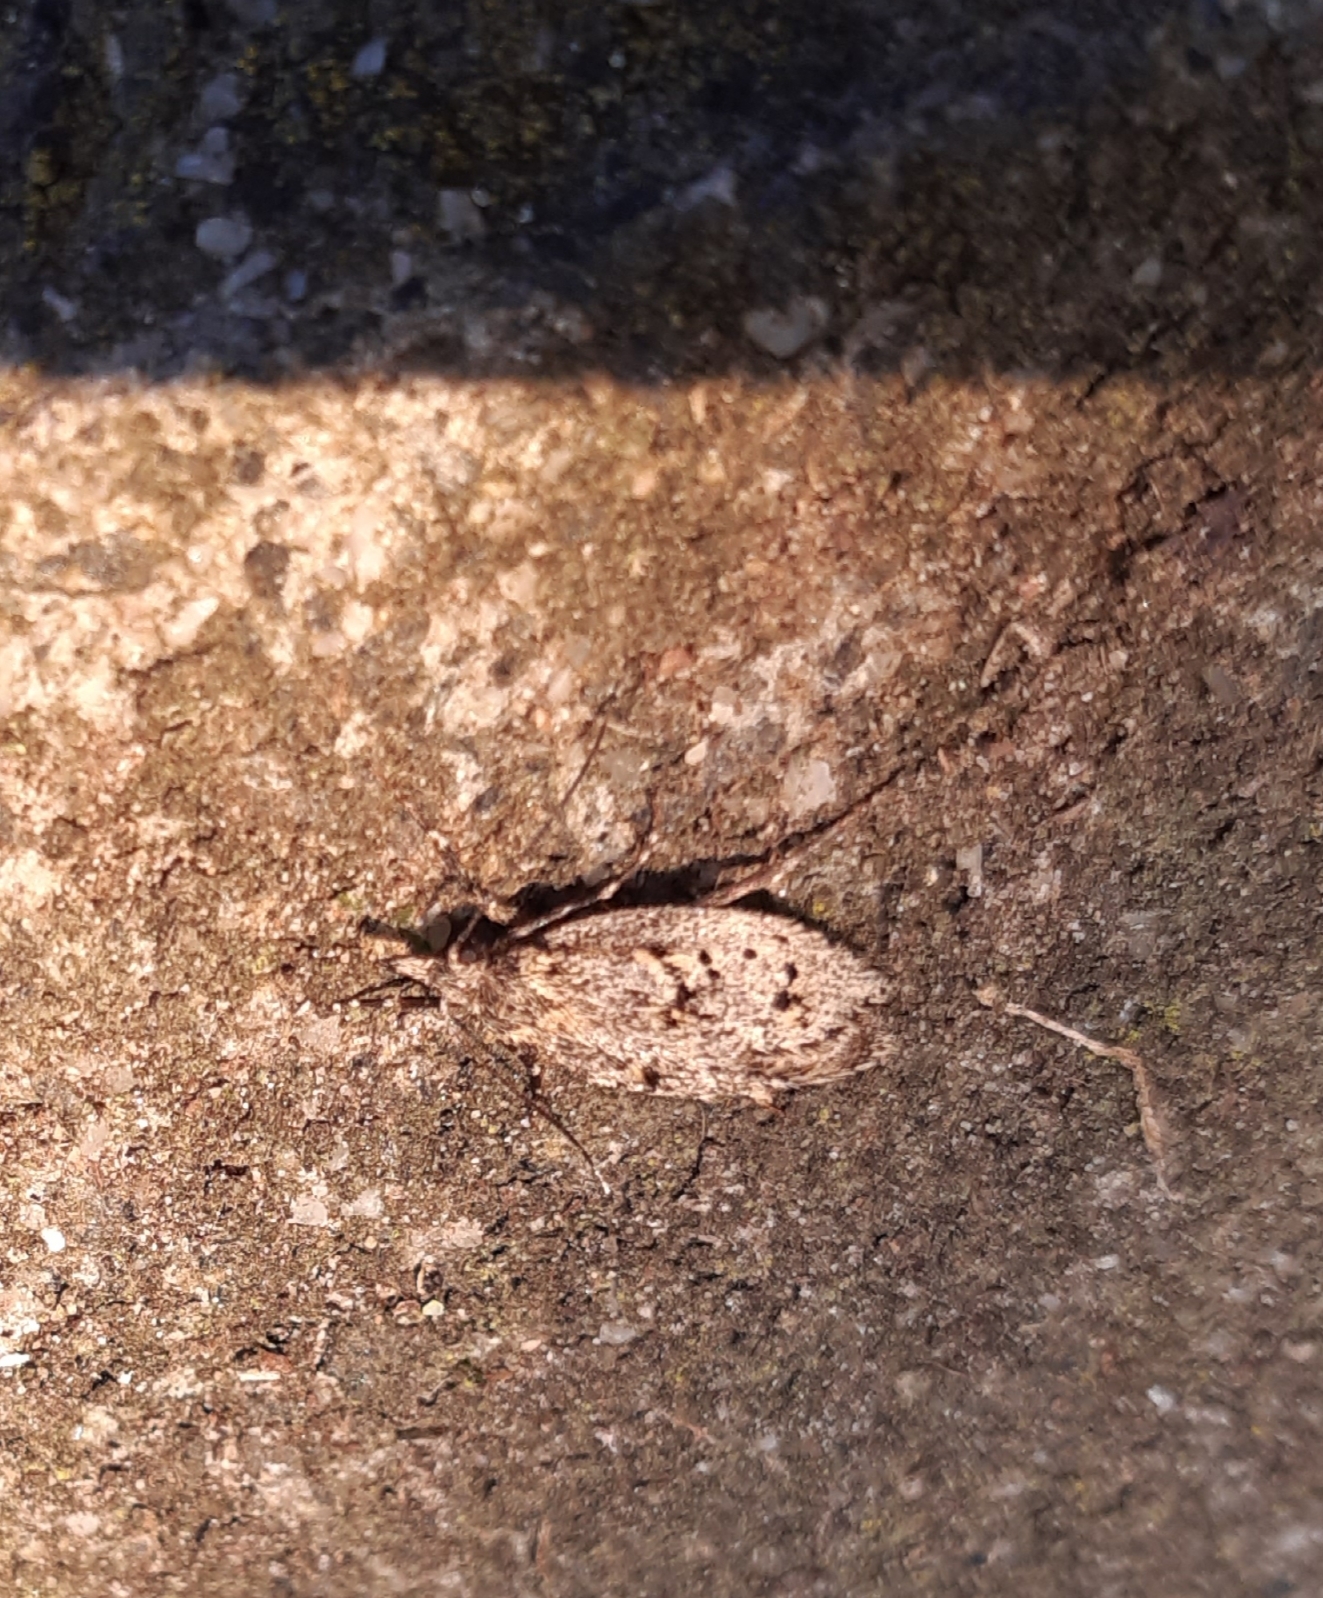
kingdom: Animalia
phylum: Arthropoda
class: Insecta
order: Lepidoptera
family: Lypusidae
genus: Diurnea
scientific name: Diurnea fagella
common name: March tubic
